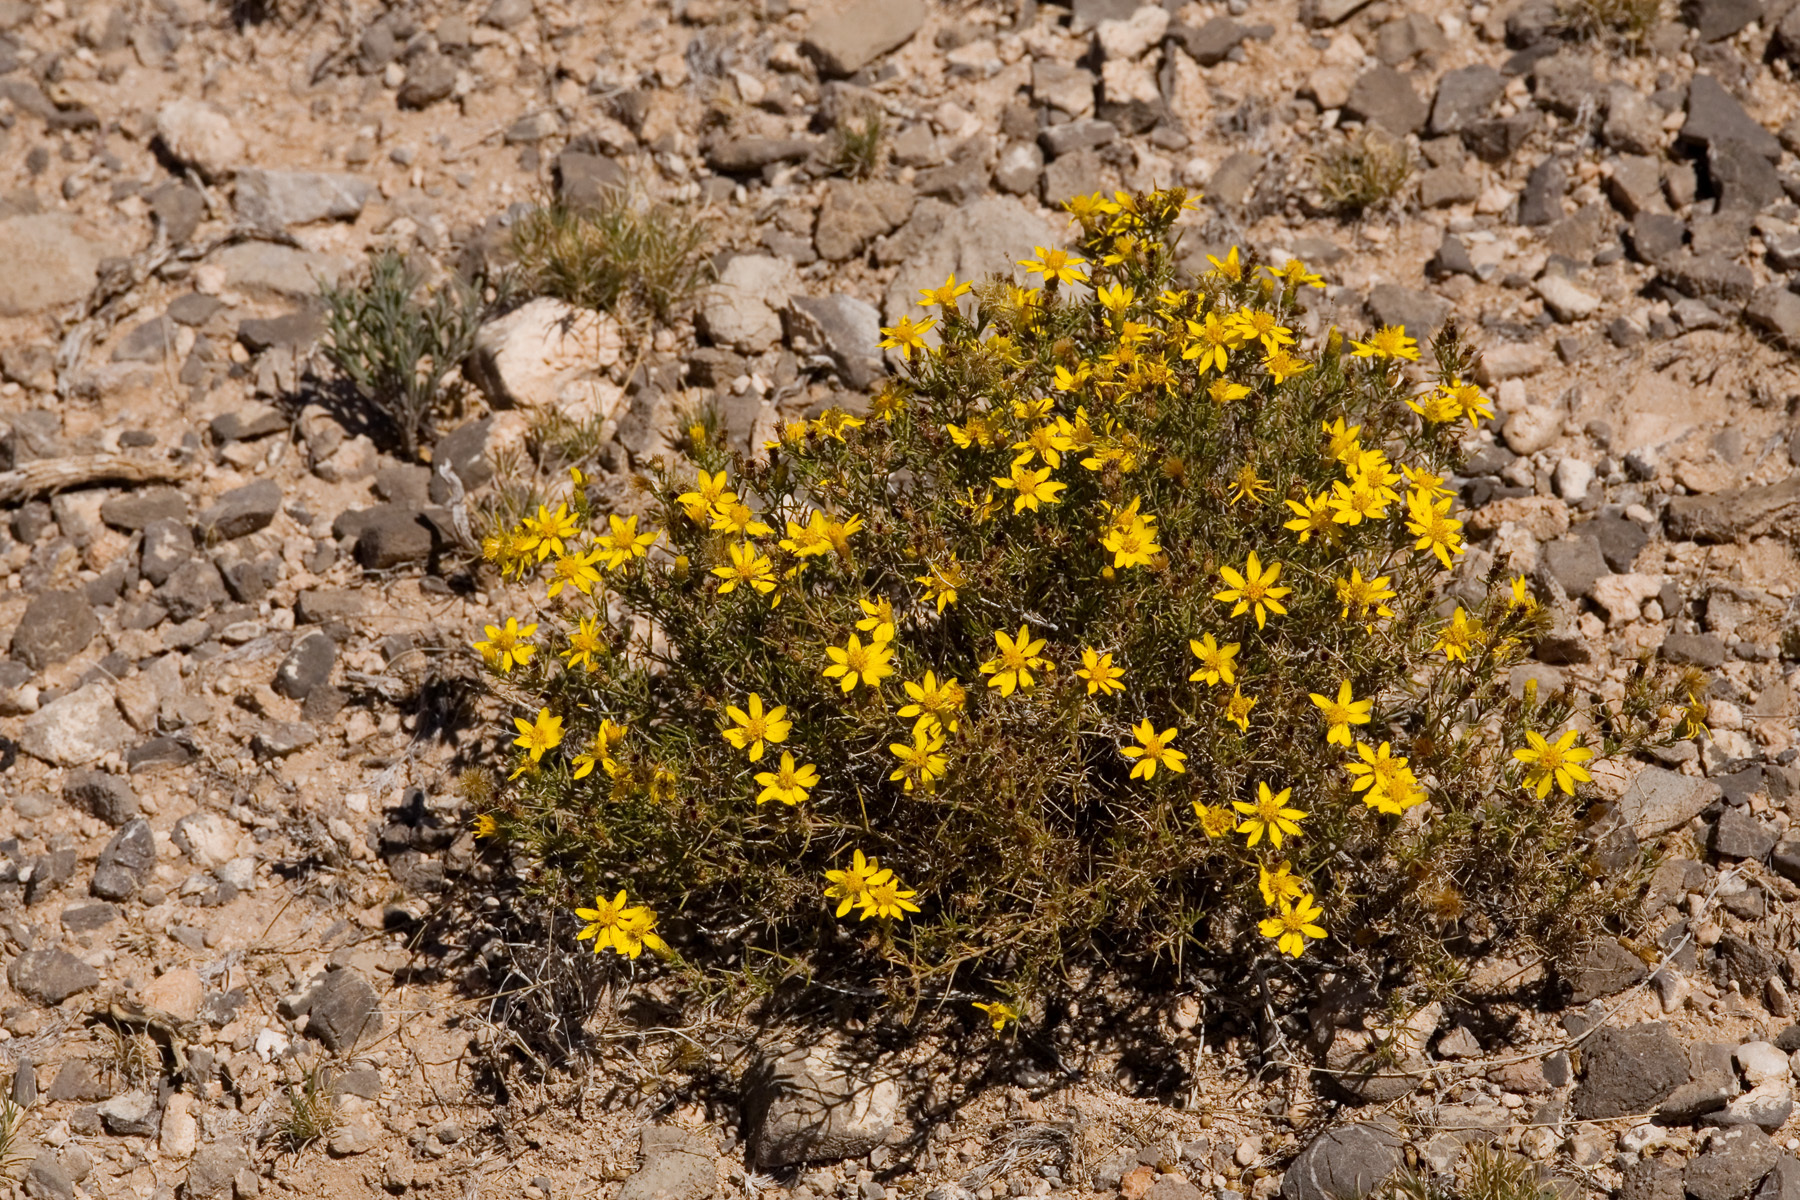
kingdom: Plantae
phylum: Tracheophyta
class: Magnoliopsida
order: Asterales
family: Asteraceae
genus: Thymophylla
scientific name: Thymophylla acerosa
